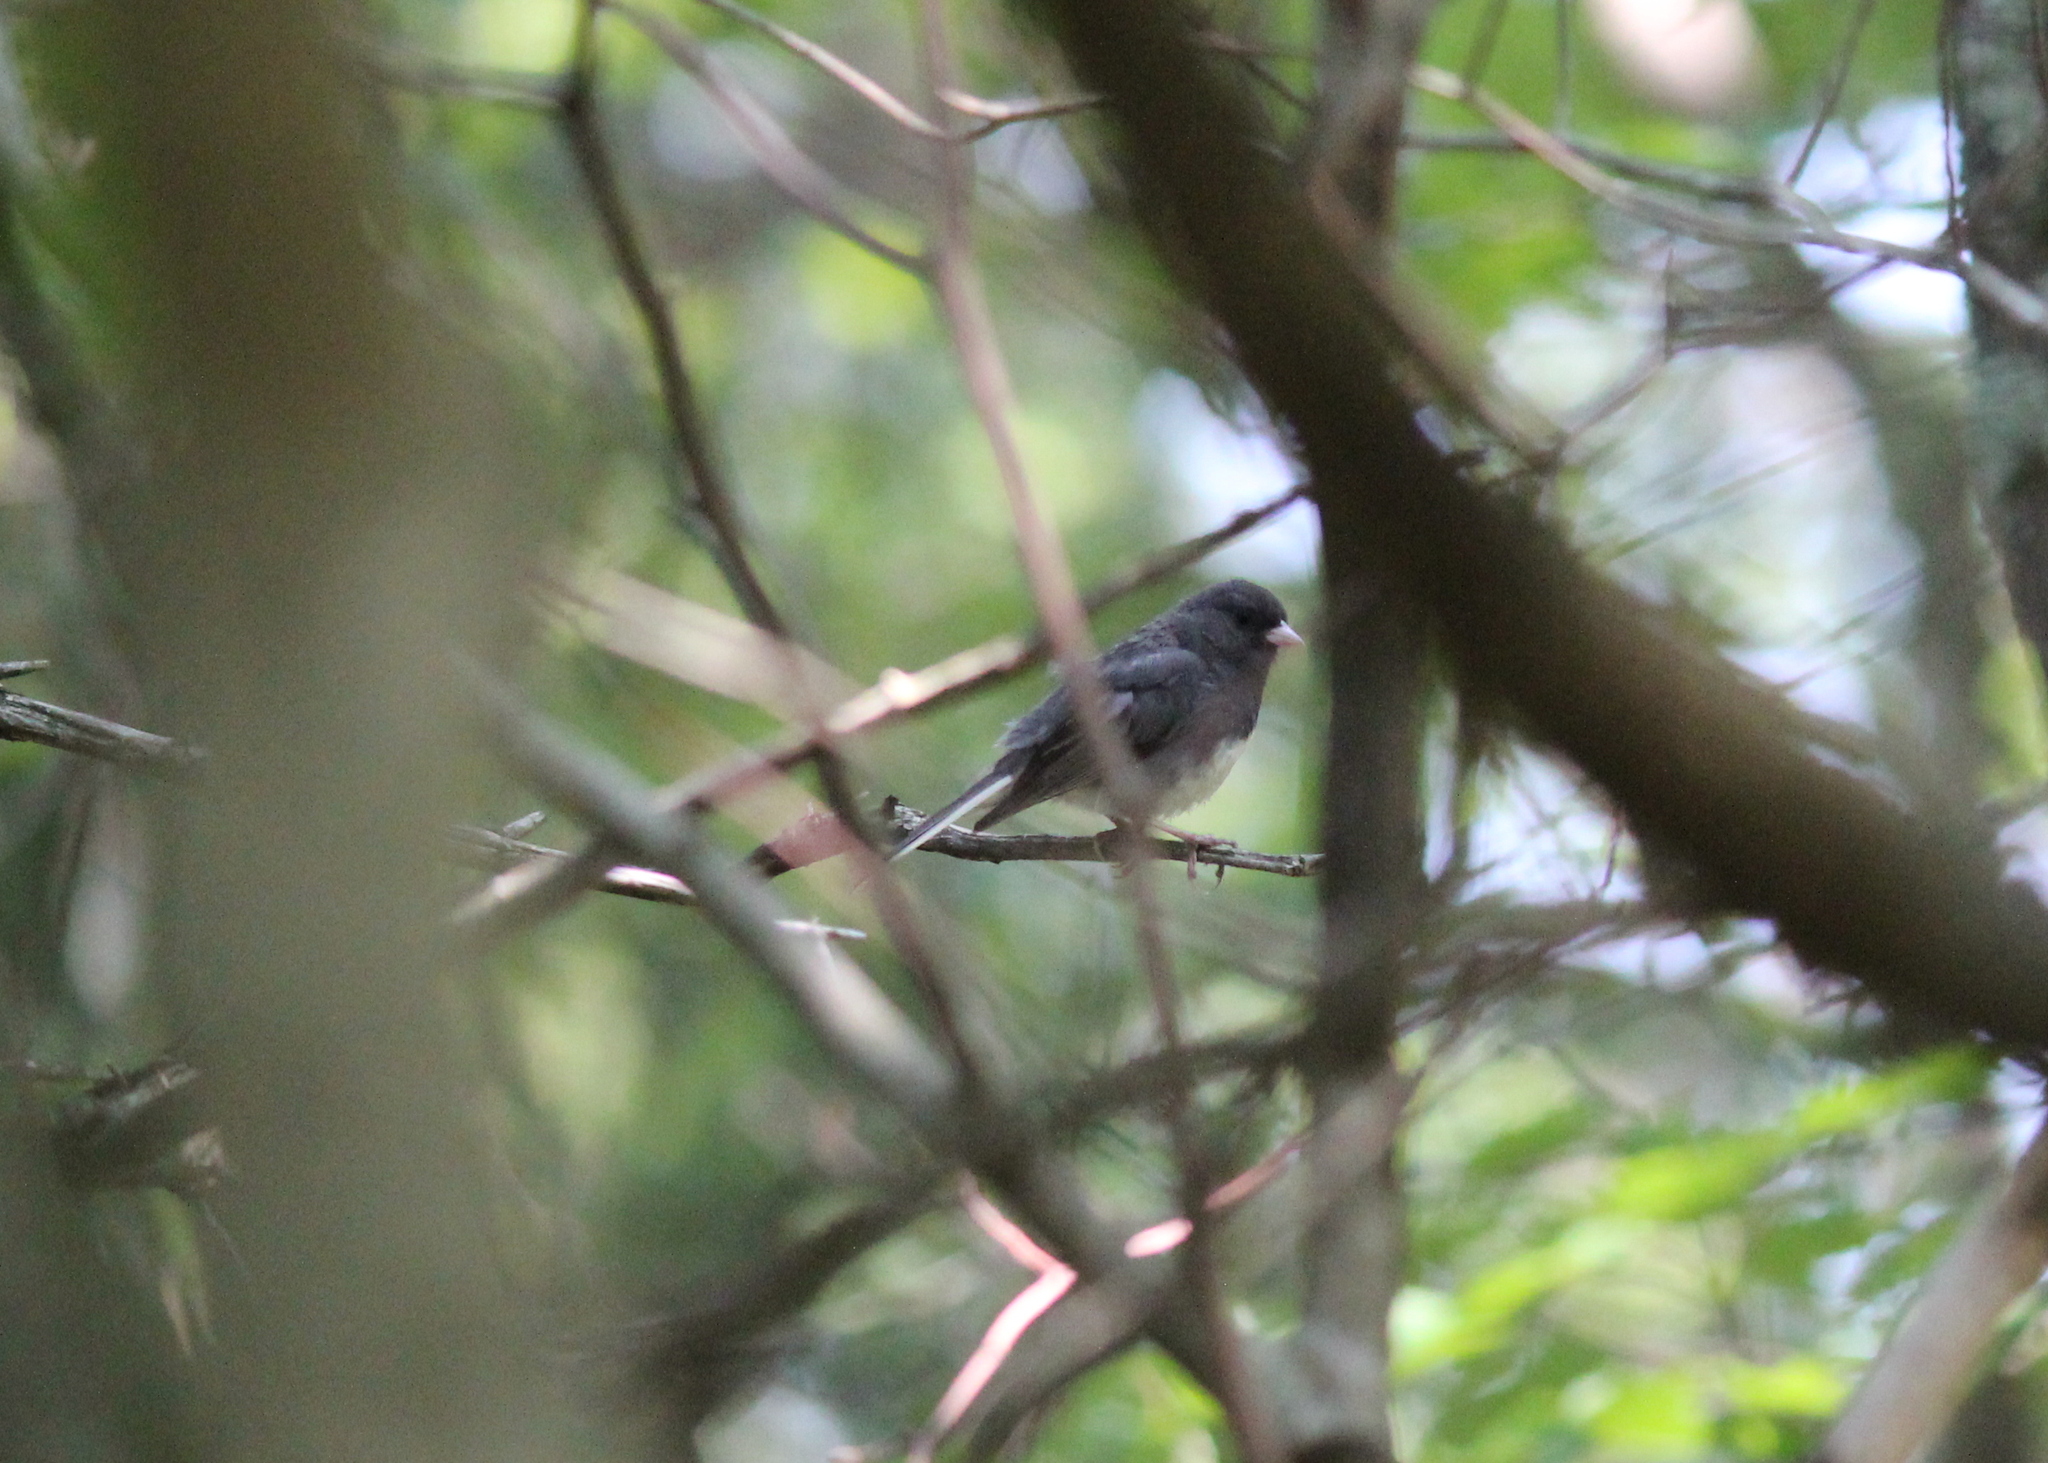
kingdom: Animalia
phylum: Chordata
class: Aves
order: Passeriformes
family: Passerellidae
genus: Junco
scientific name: Junco hyemalis
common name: Dark-eyed junco
